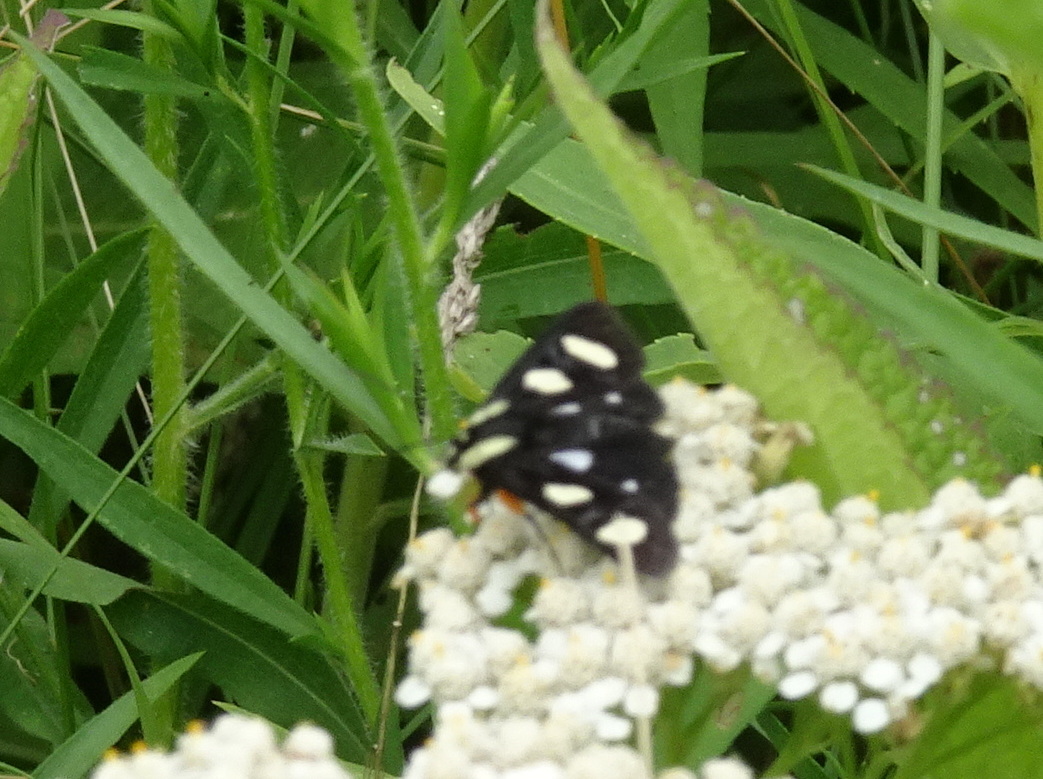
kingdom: Animalia
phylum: Arthropoda
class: Insecta
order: Lepidoptera
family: Noctuidae
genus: Alypia
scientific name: Alypia octomaculata
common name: Eight-spotted forester
